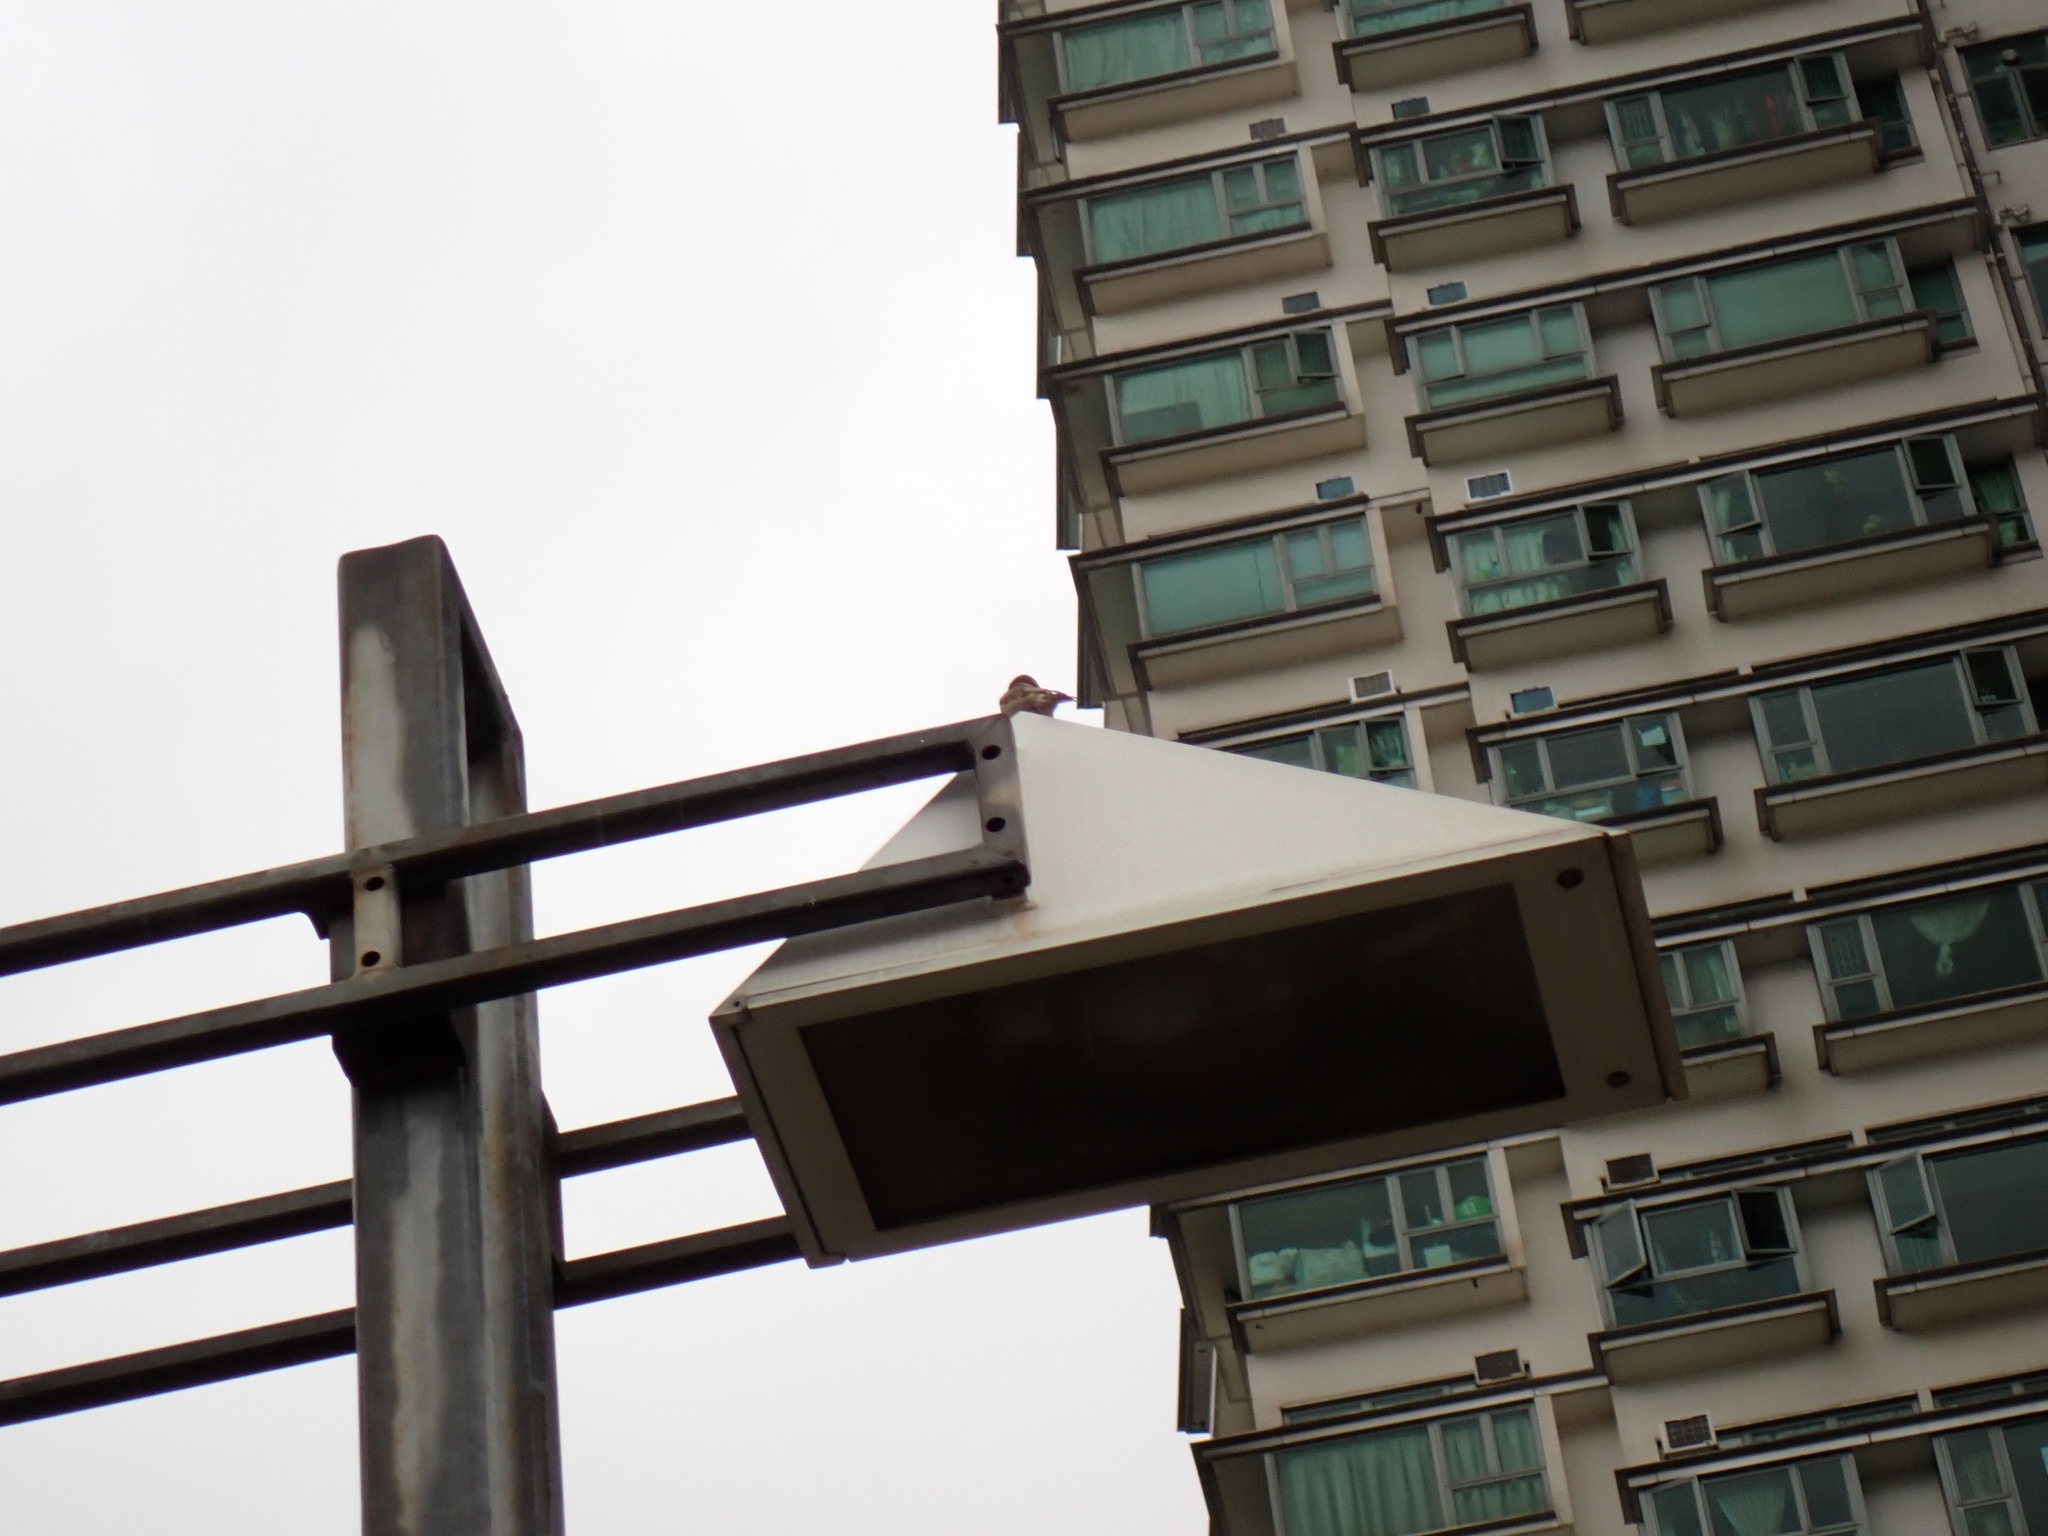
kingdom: Animalia
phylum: Chordata
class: Aves
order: Passeriformes
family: Passeridae
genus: Passer
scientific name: Passer montanus
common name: Eurasian tree sparrow
